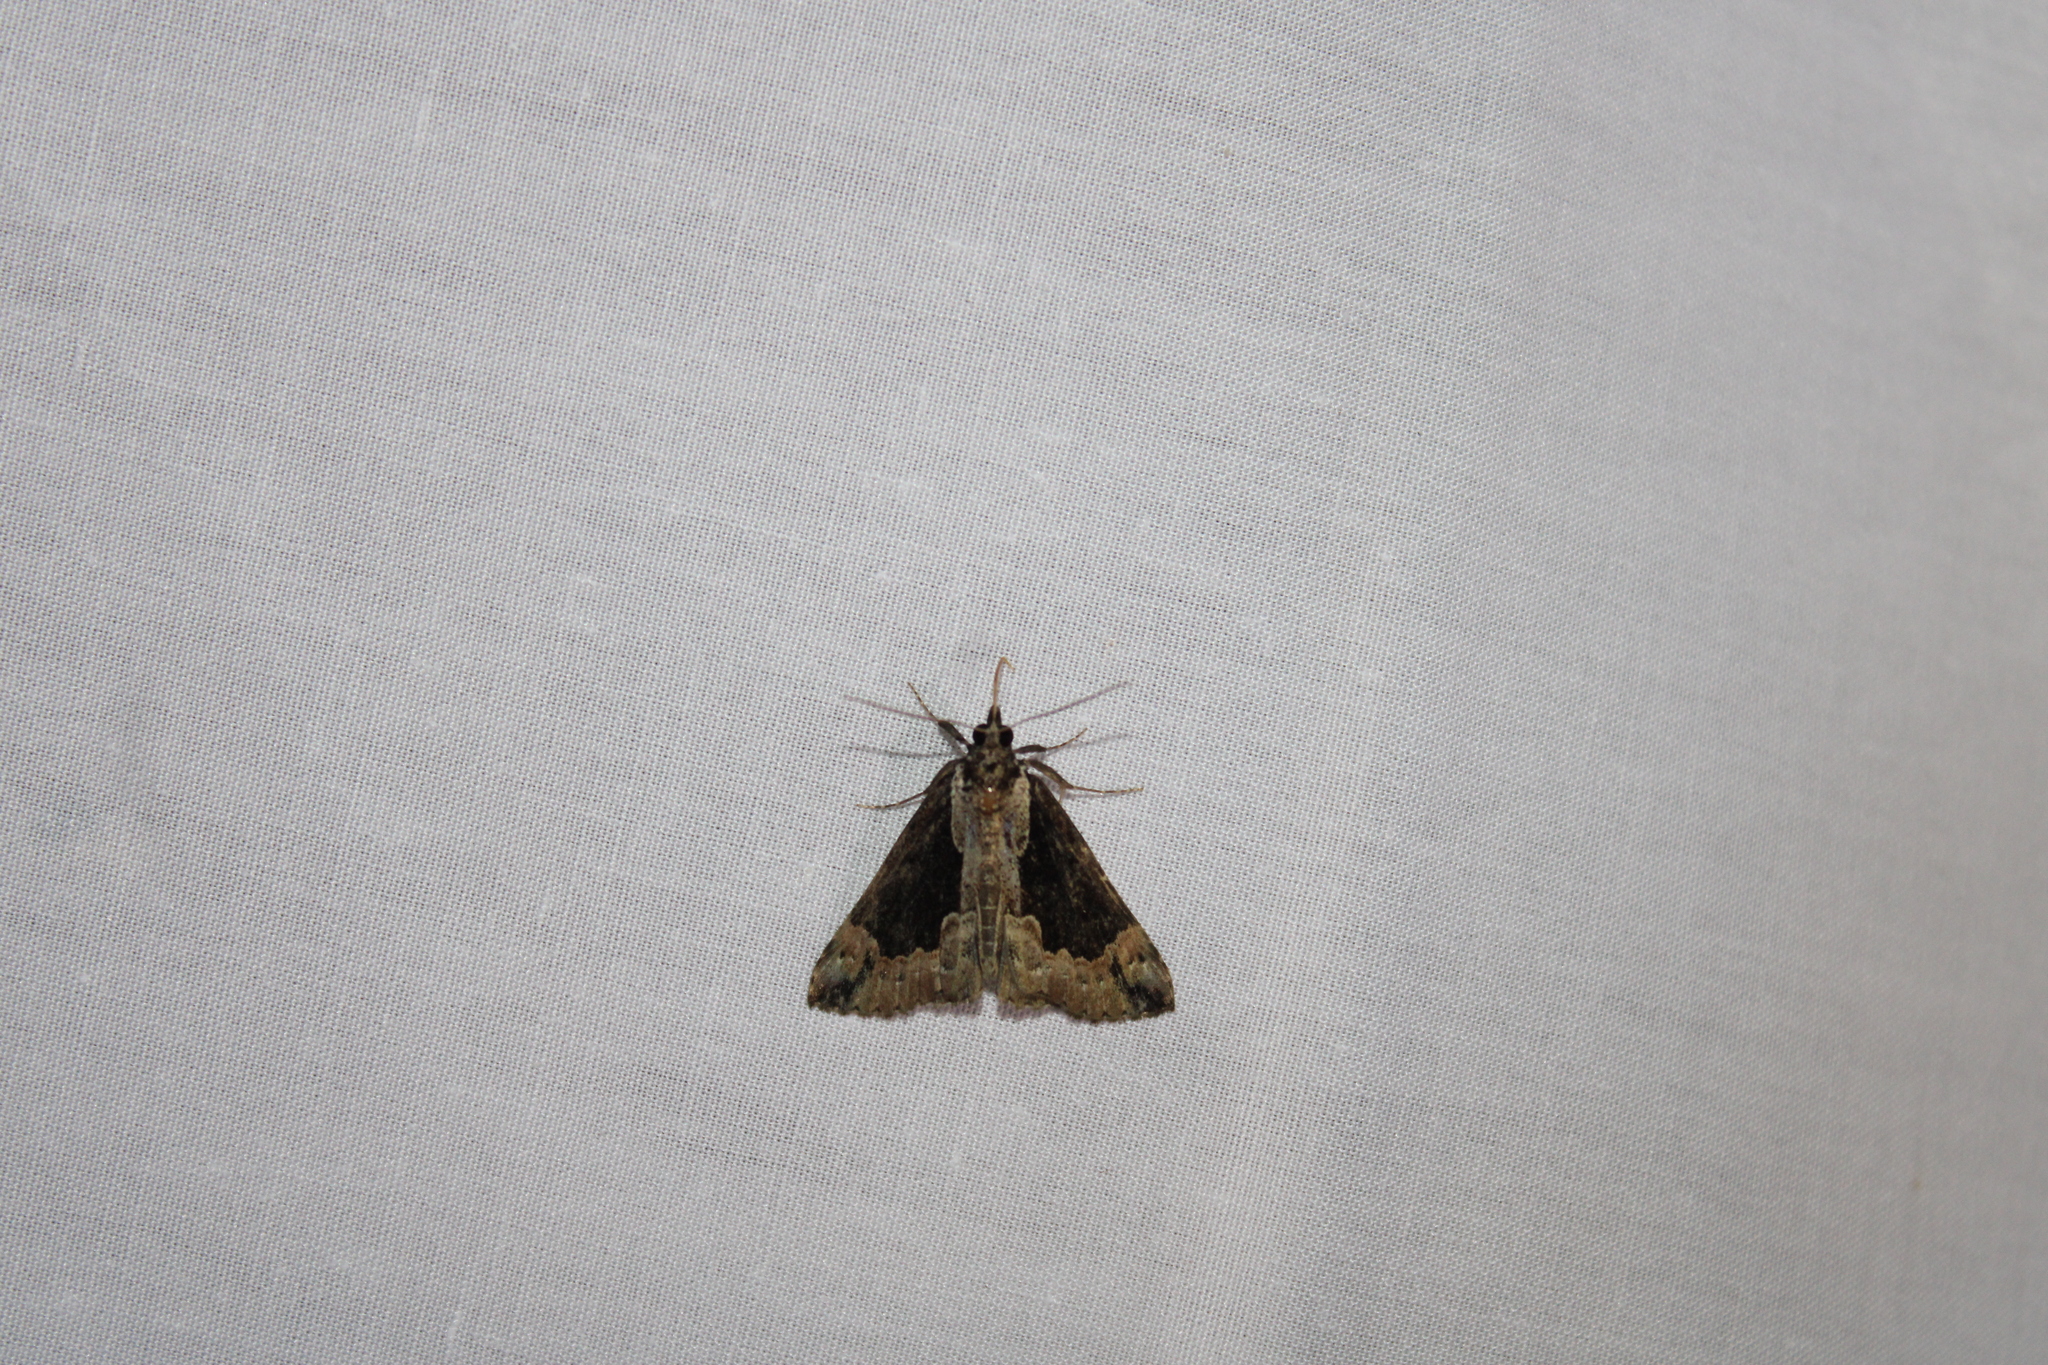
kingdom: Animalia
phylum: Arthropoda
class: Insecta
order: Lepidoptera
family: Erebidae
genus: Hypena
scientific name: Hypena baltimoralis
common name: Baltimore snout
